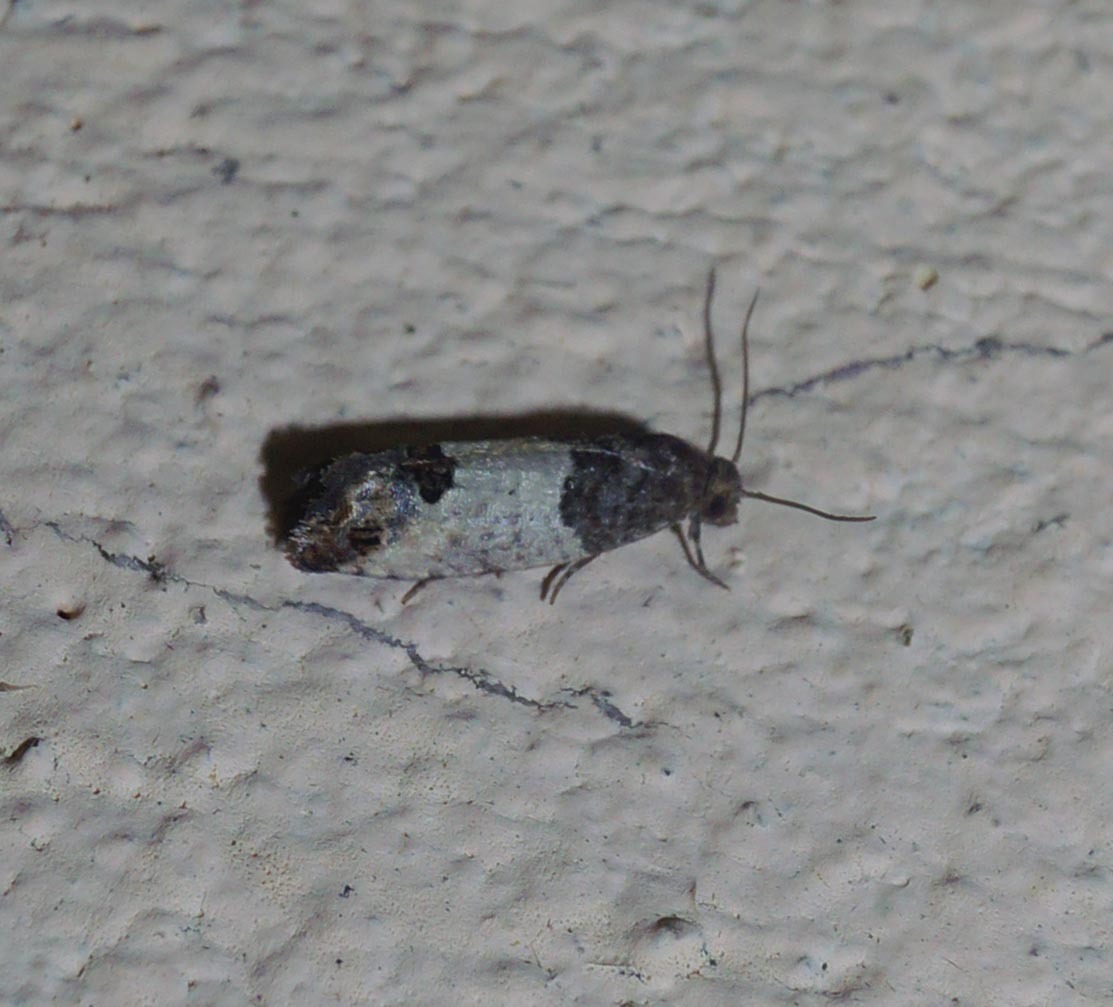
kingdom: Animalia
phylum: Arthropoda
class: Insecta
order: Lepidoptera
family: Tortricidae
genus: Spilonota
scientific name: Spilonota ocellana
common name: Bud moth
